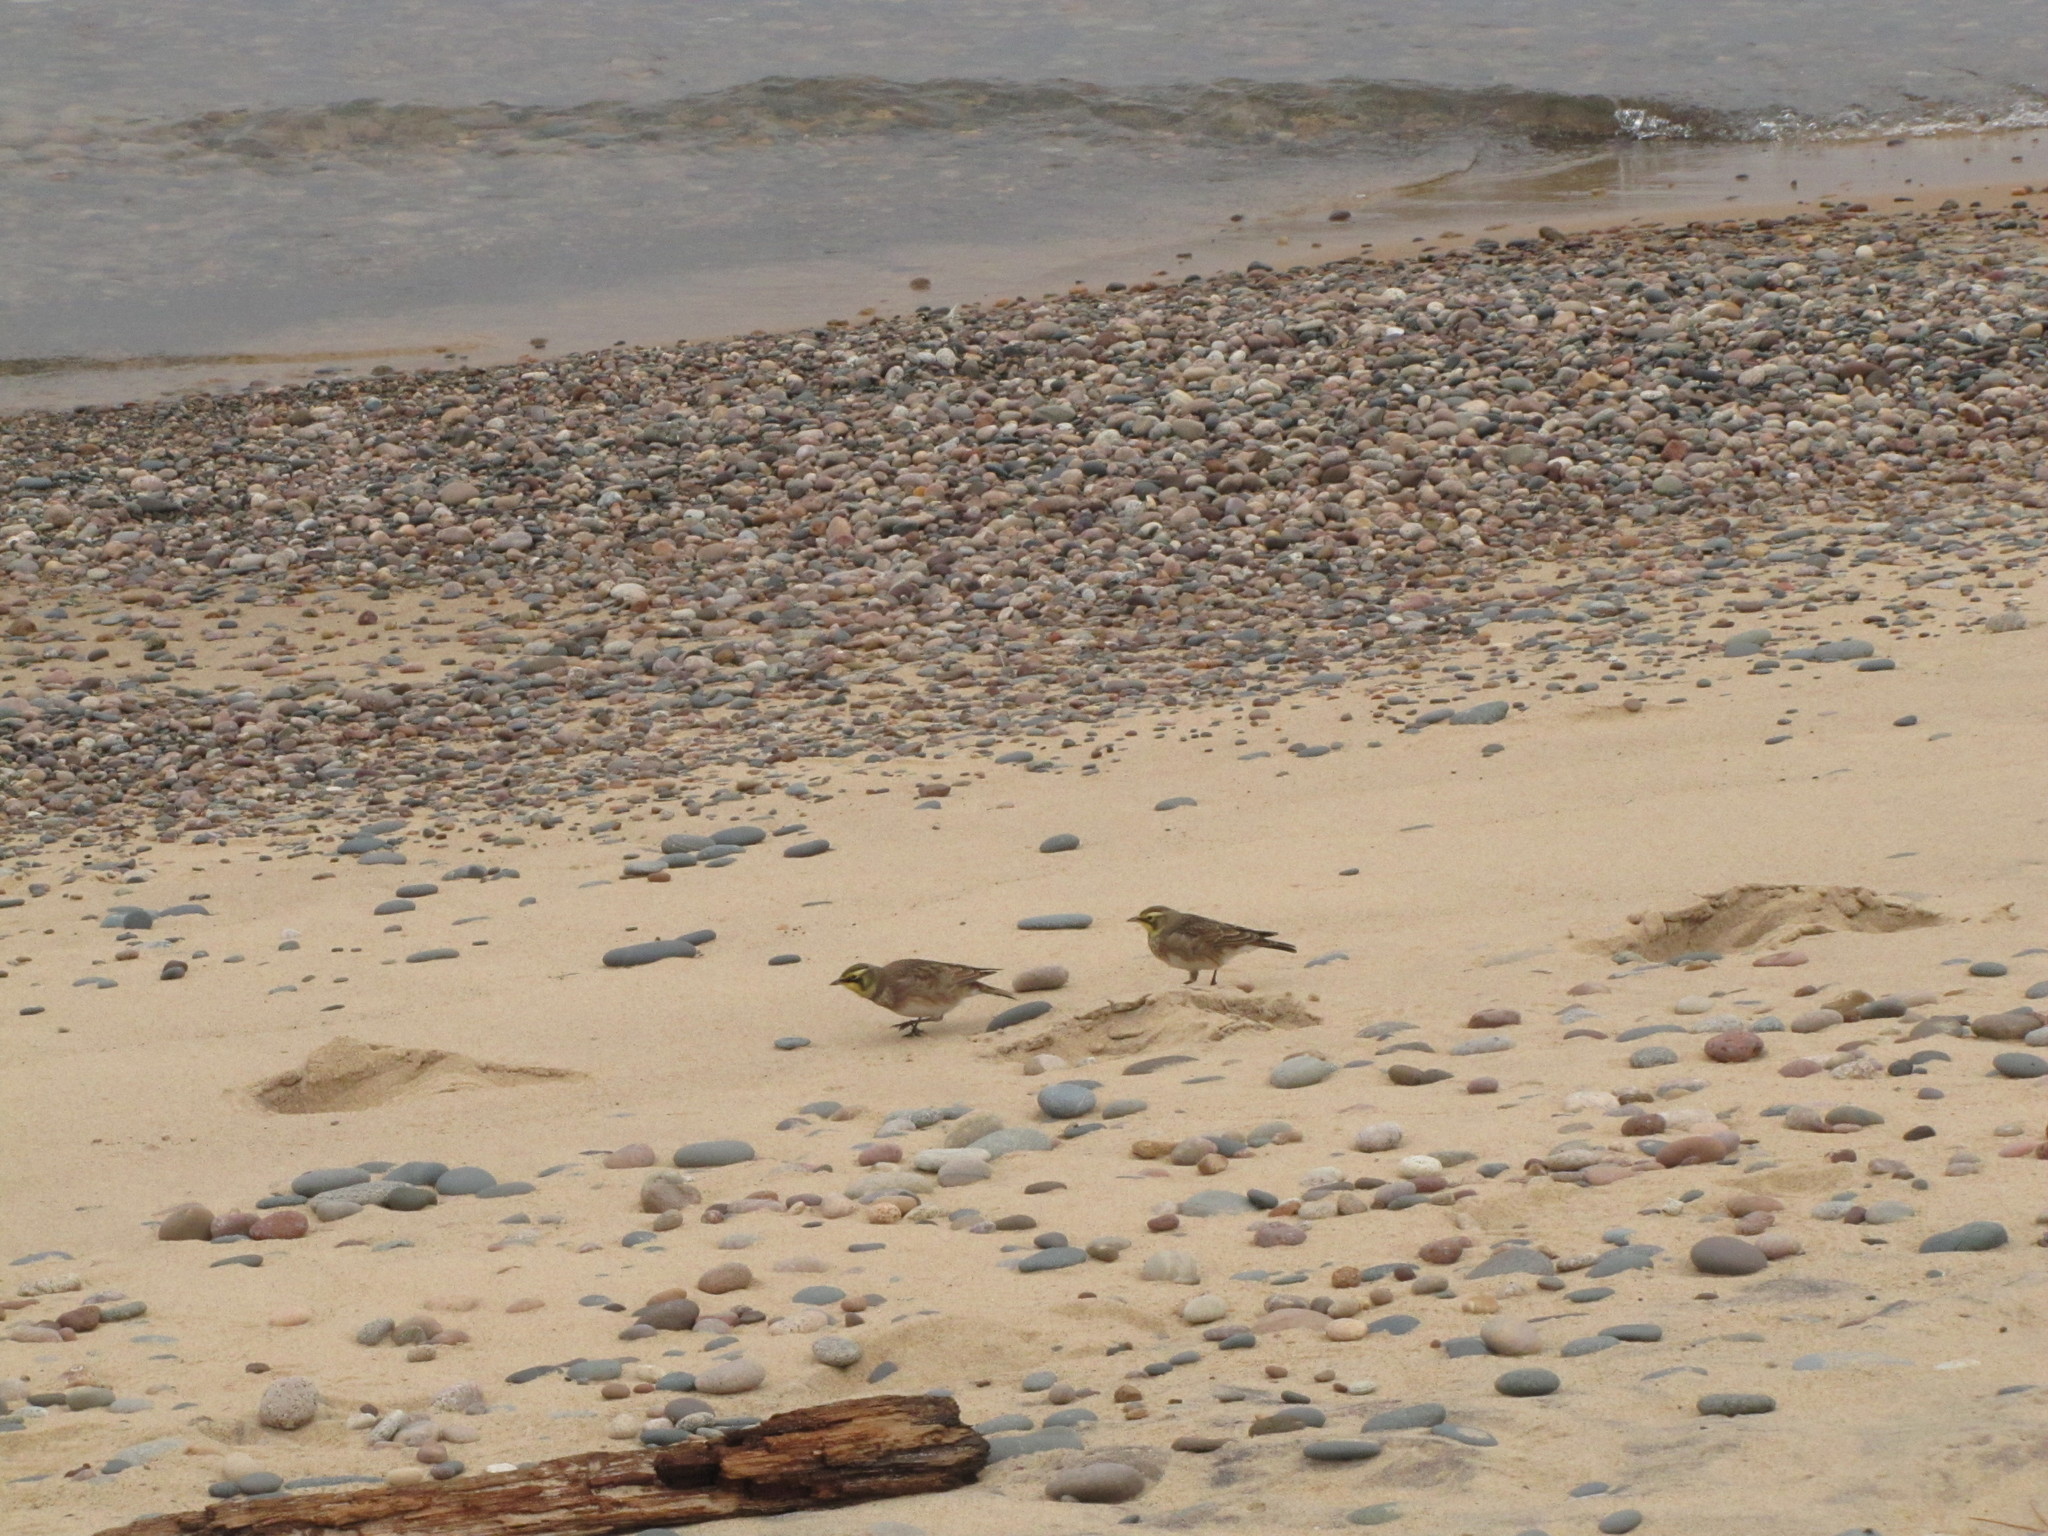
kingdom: Animalia
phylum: Chordata
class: Aves
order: Passeriformes
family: Alaudidae
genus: Eremophila
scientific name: Eremophila alpestris
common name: Horned lark
